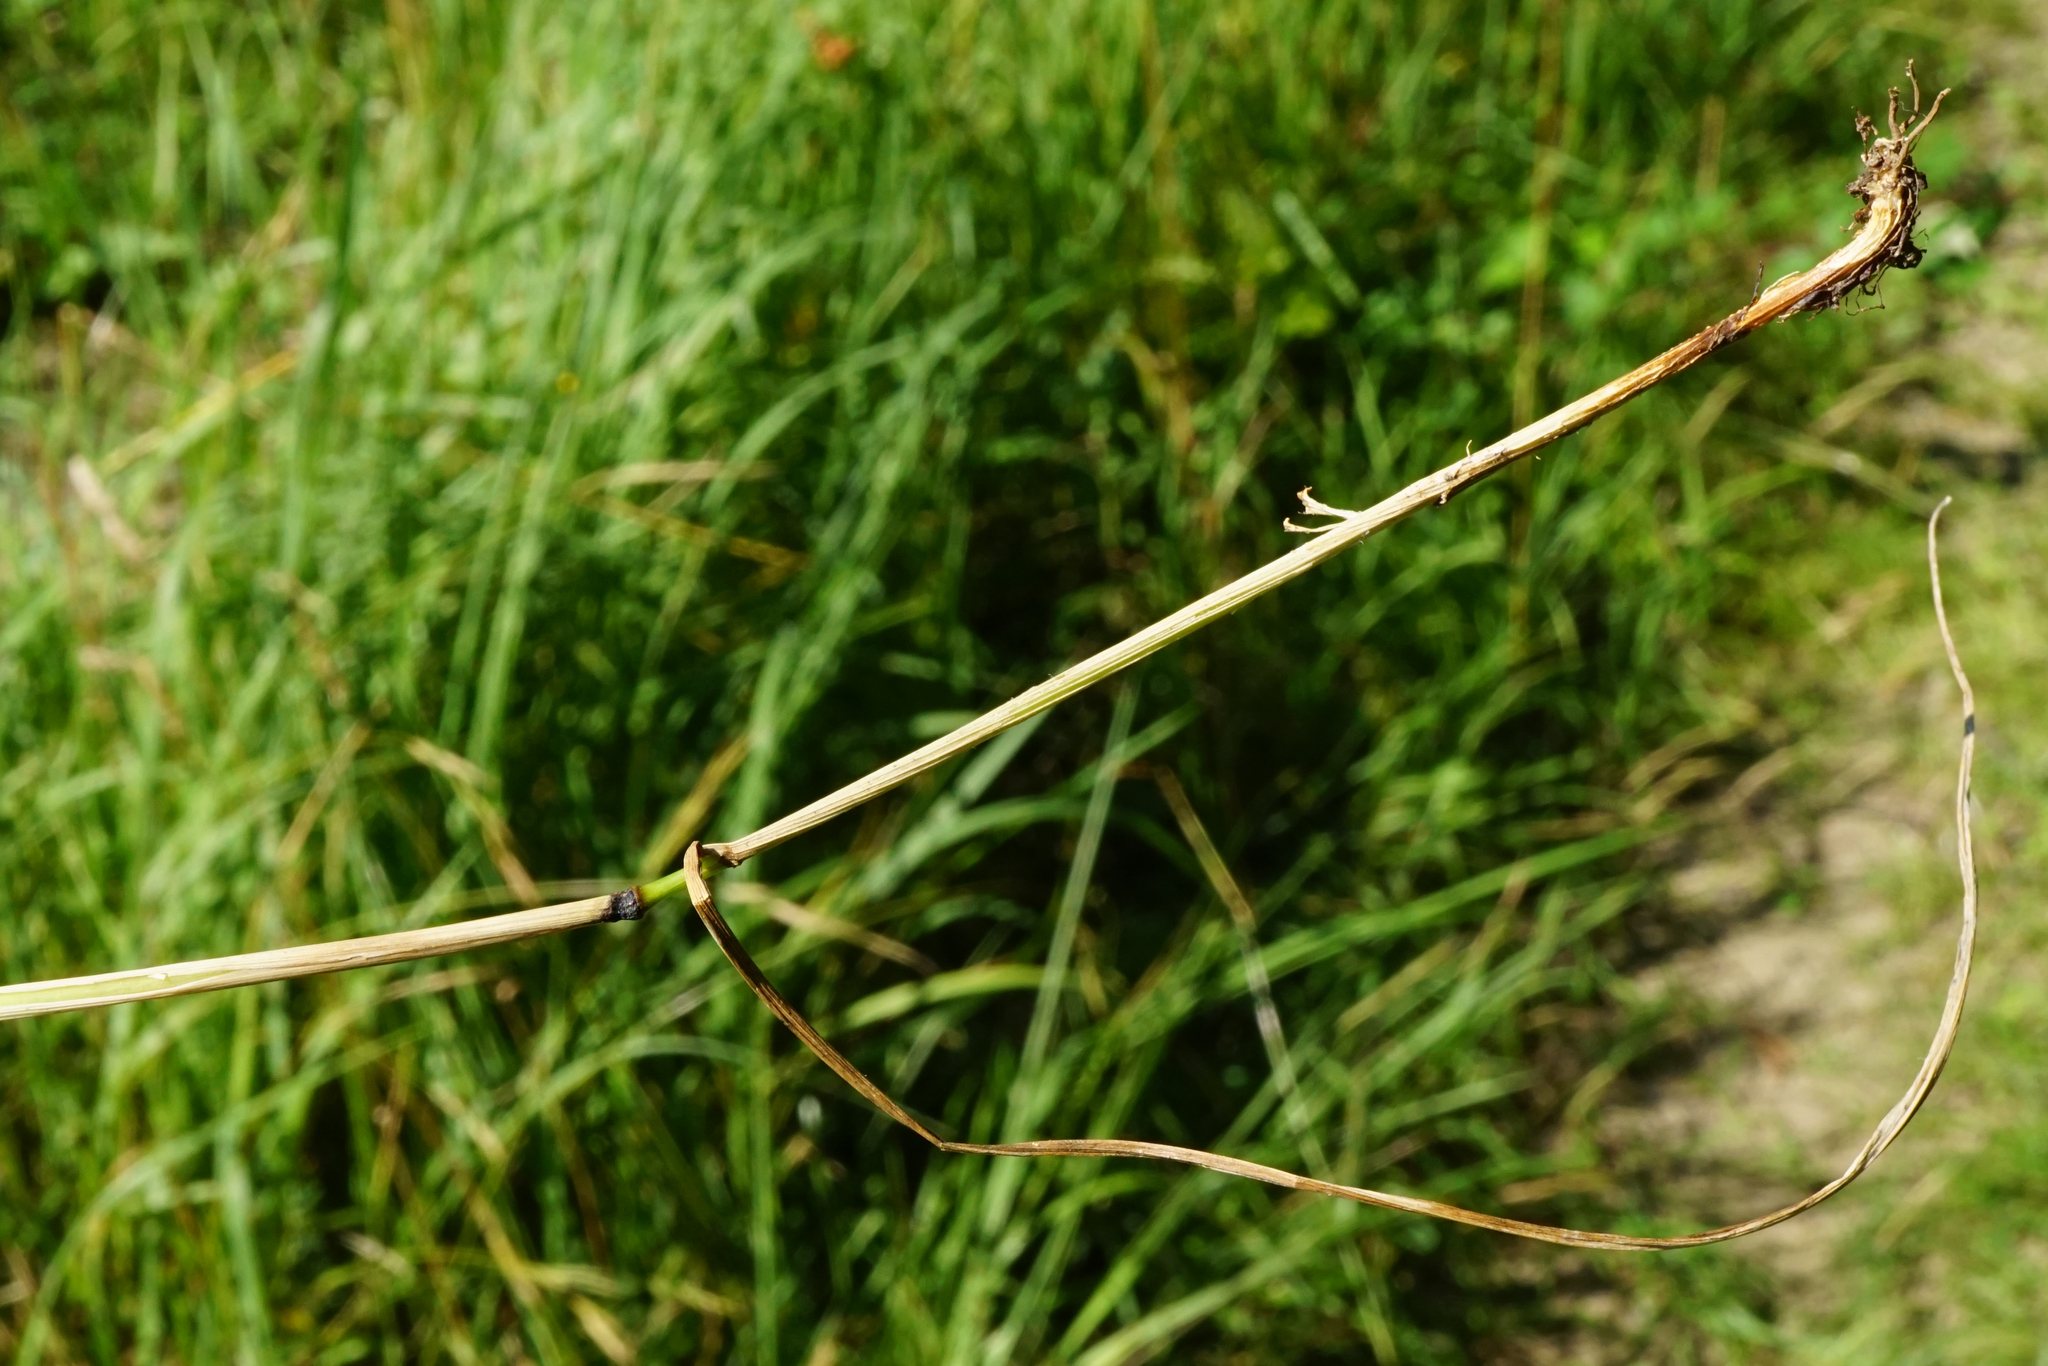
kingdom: Plantae
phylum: Tracheophyta
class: Liliopsida
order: Poales
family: Poaceae
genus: Lolium
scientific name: Lolium arundinaceum
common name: Reed fescue
